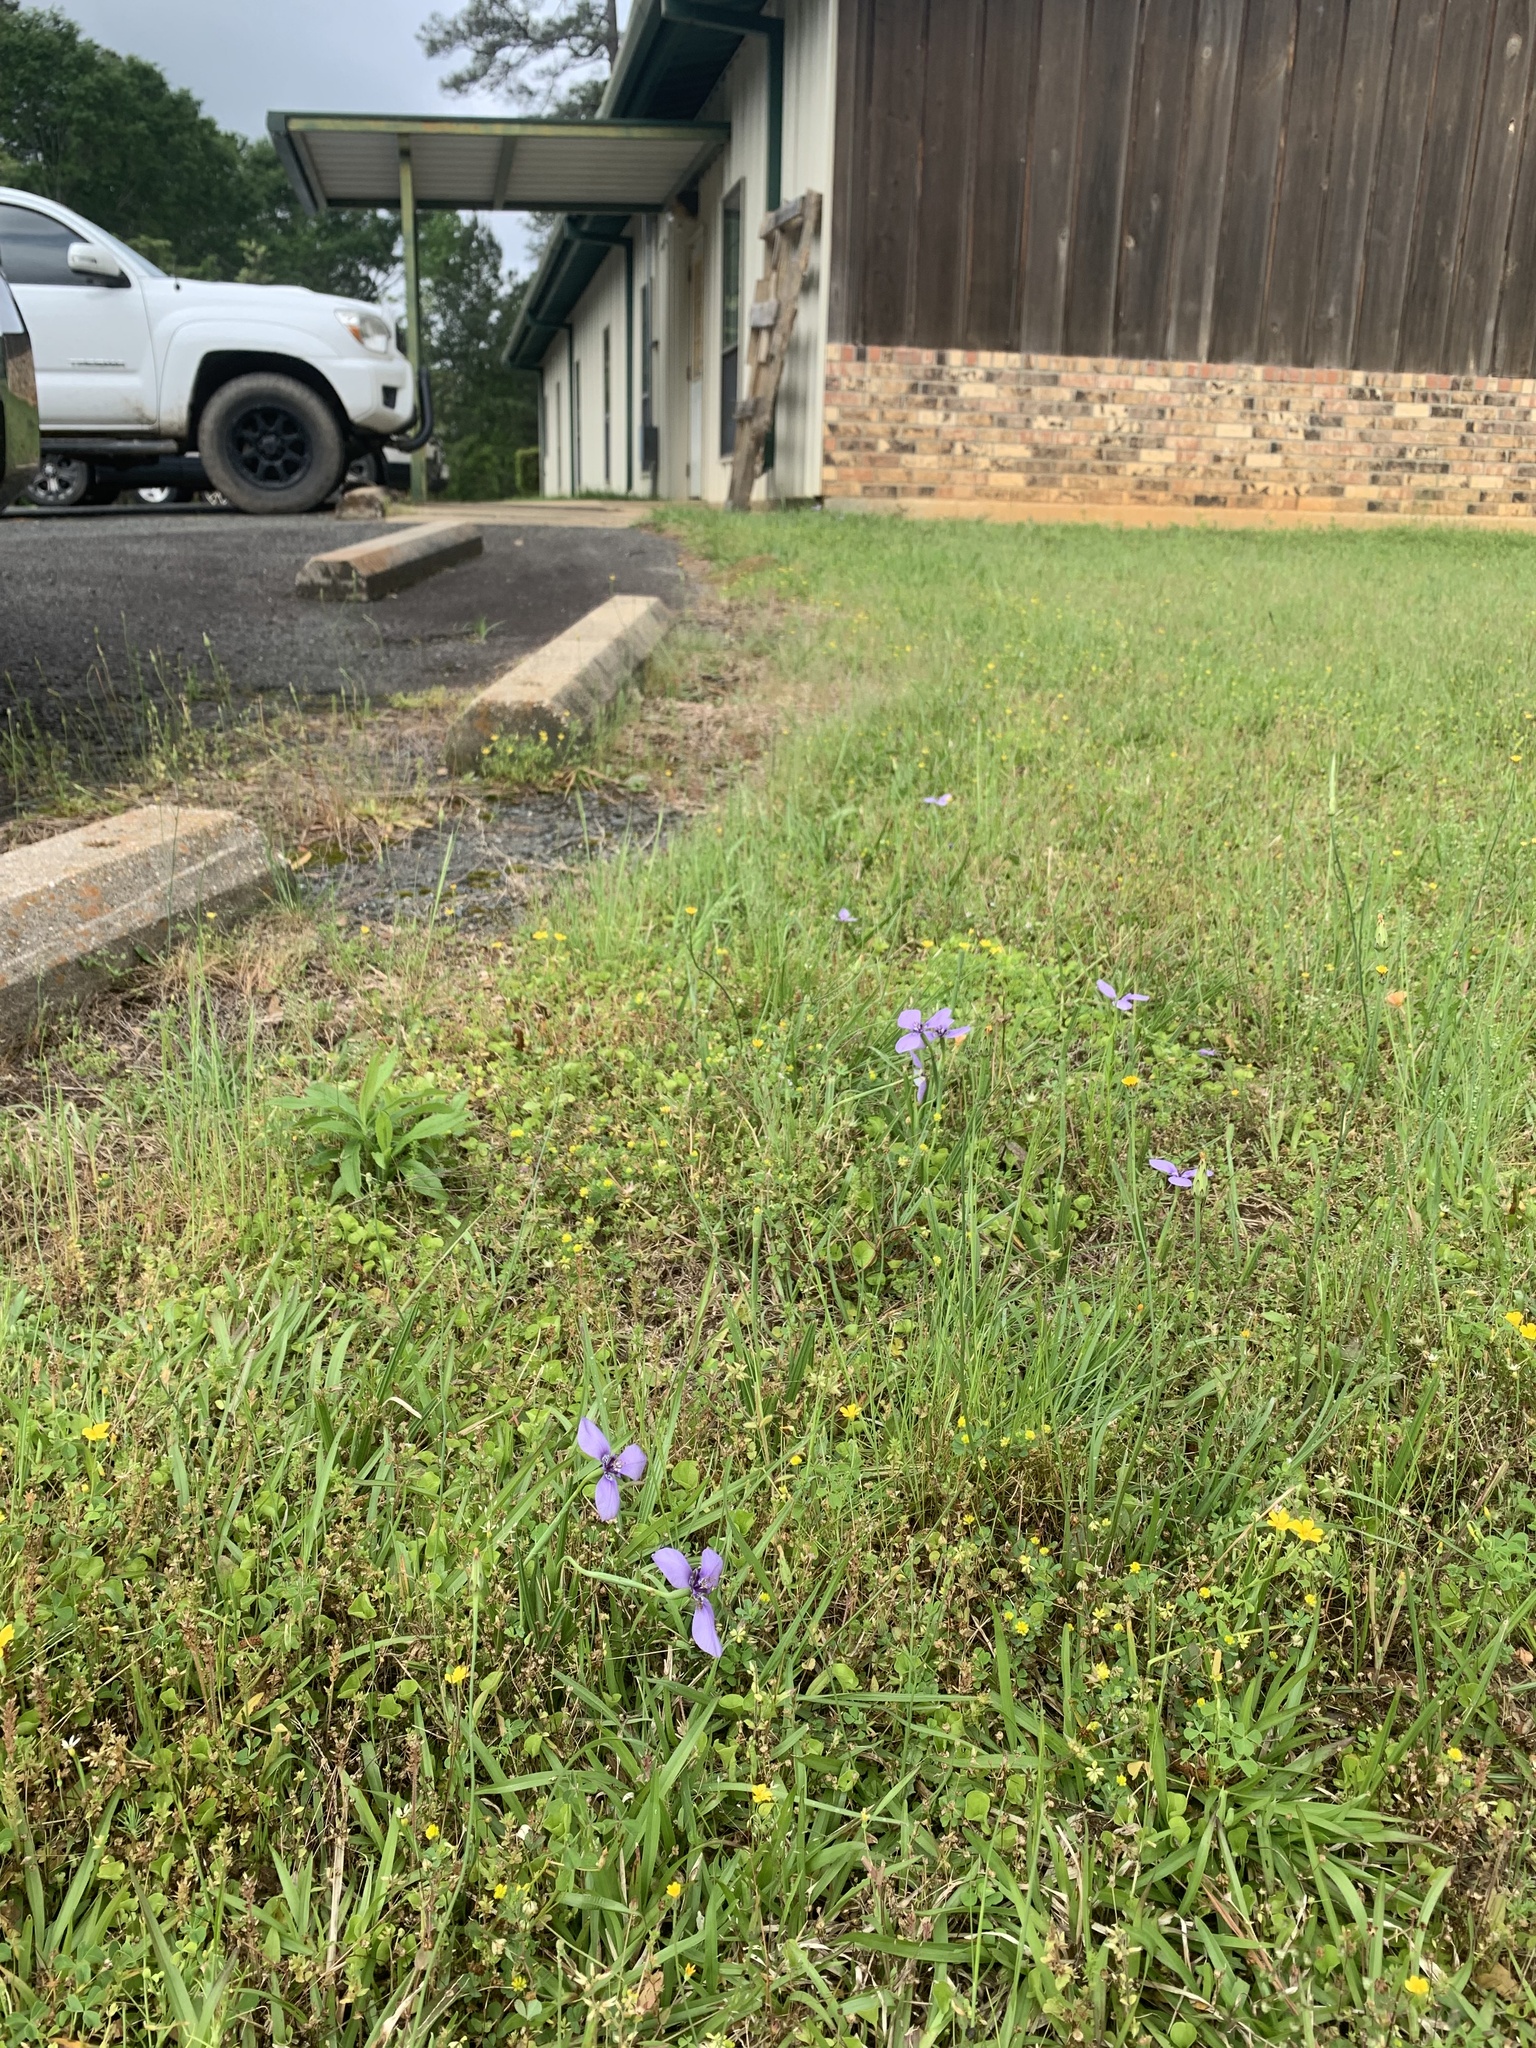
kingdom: Plantae
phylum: Tracheophyta
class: Liliopsida
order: Asparagales
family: Iridaceae
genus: Herbertia
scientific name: Herbertia lahue
